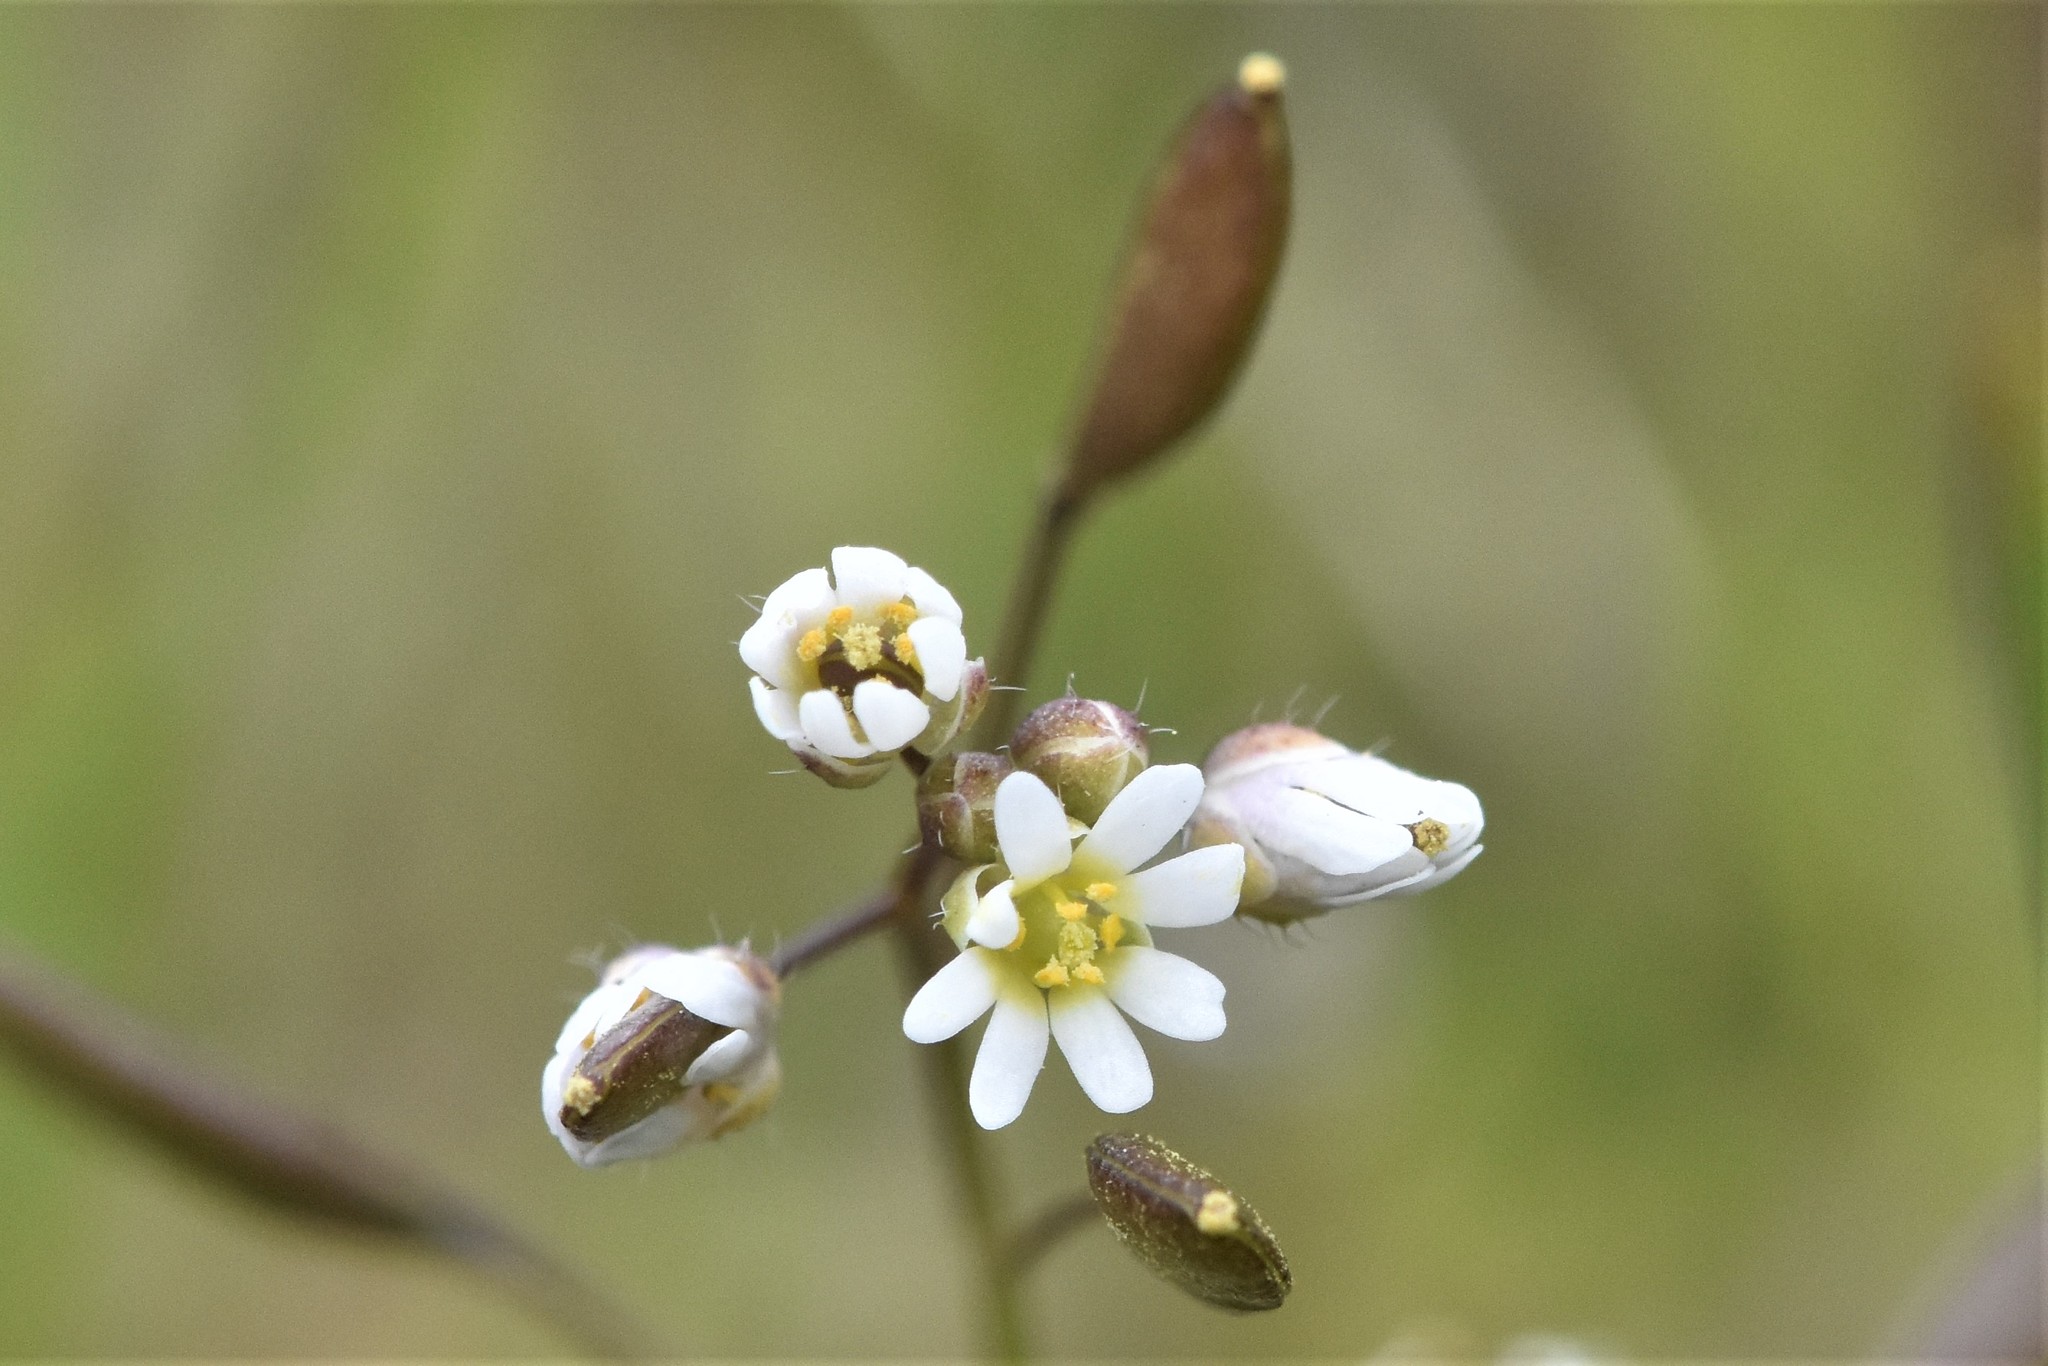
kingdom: Plantae
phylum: Tracheophyta
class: Magnoliopsida
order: Brassicales
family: Brassicaceae
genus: Draba
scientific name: Draba verna
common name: Spring draba
